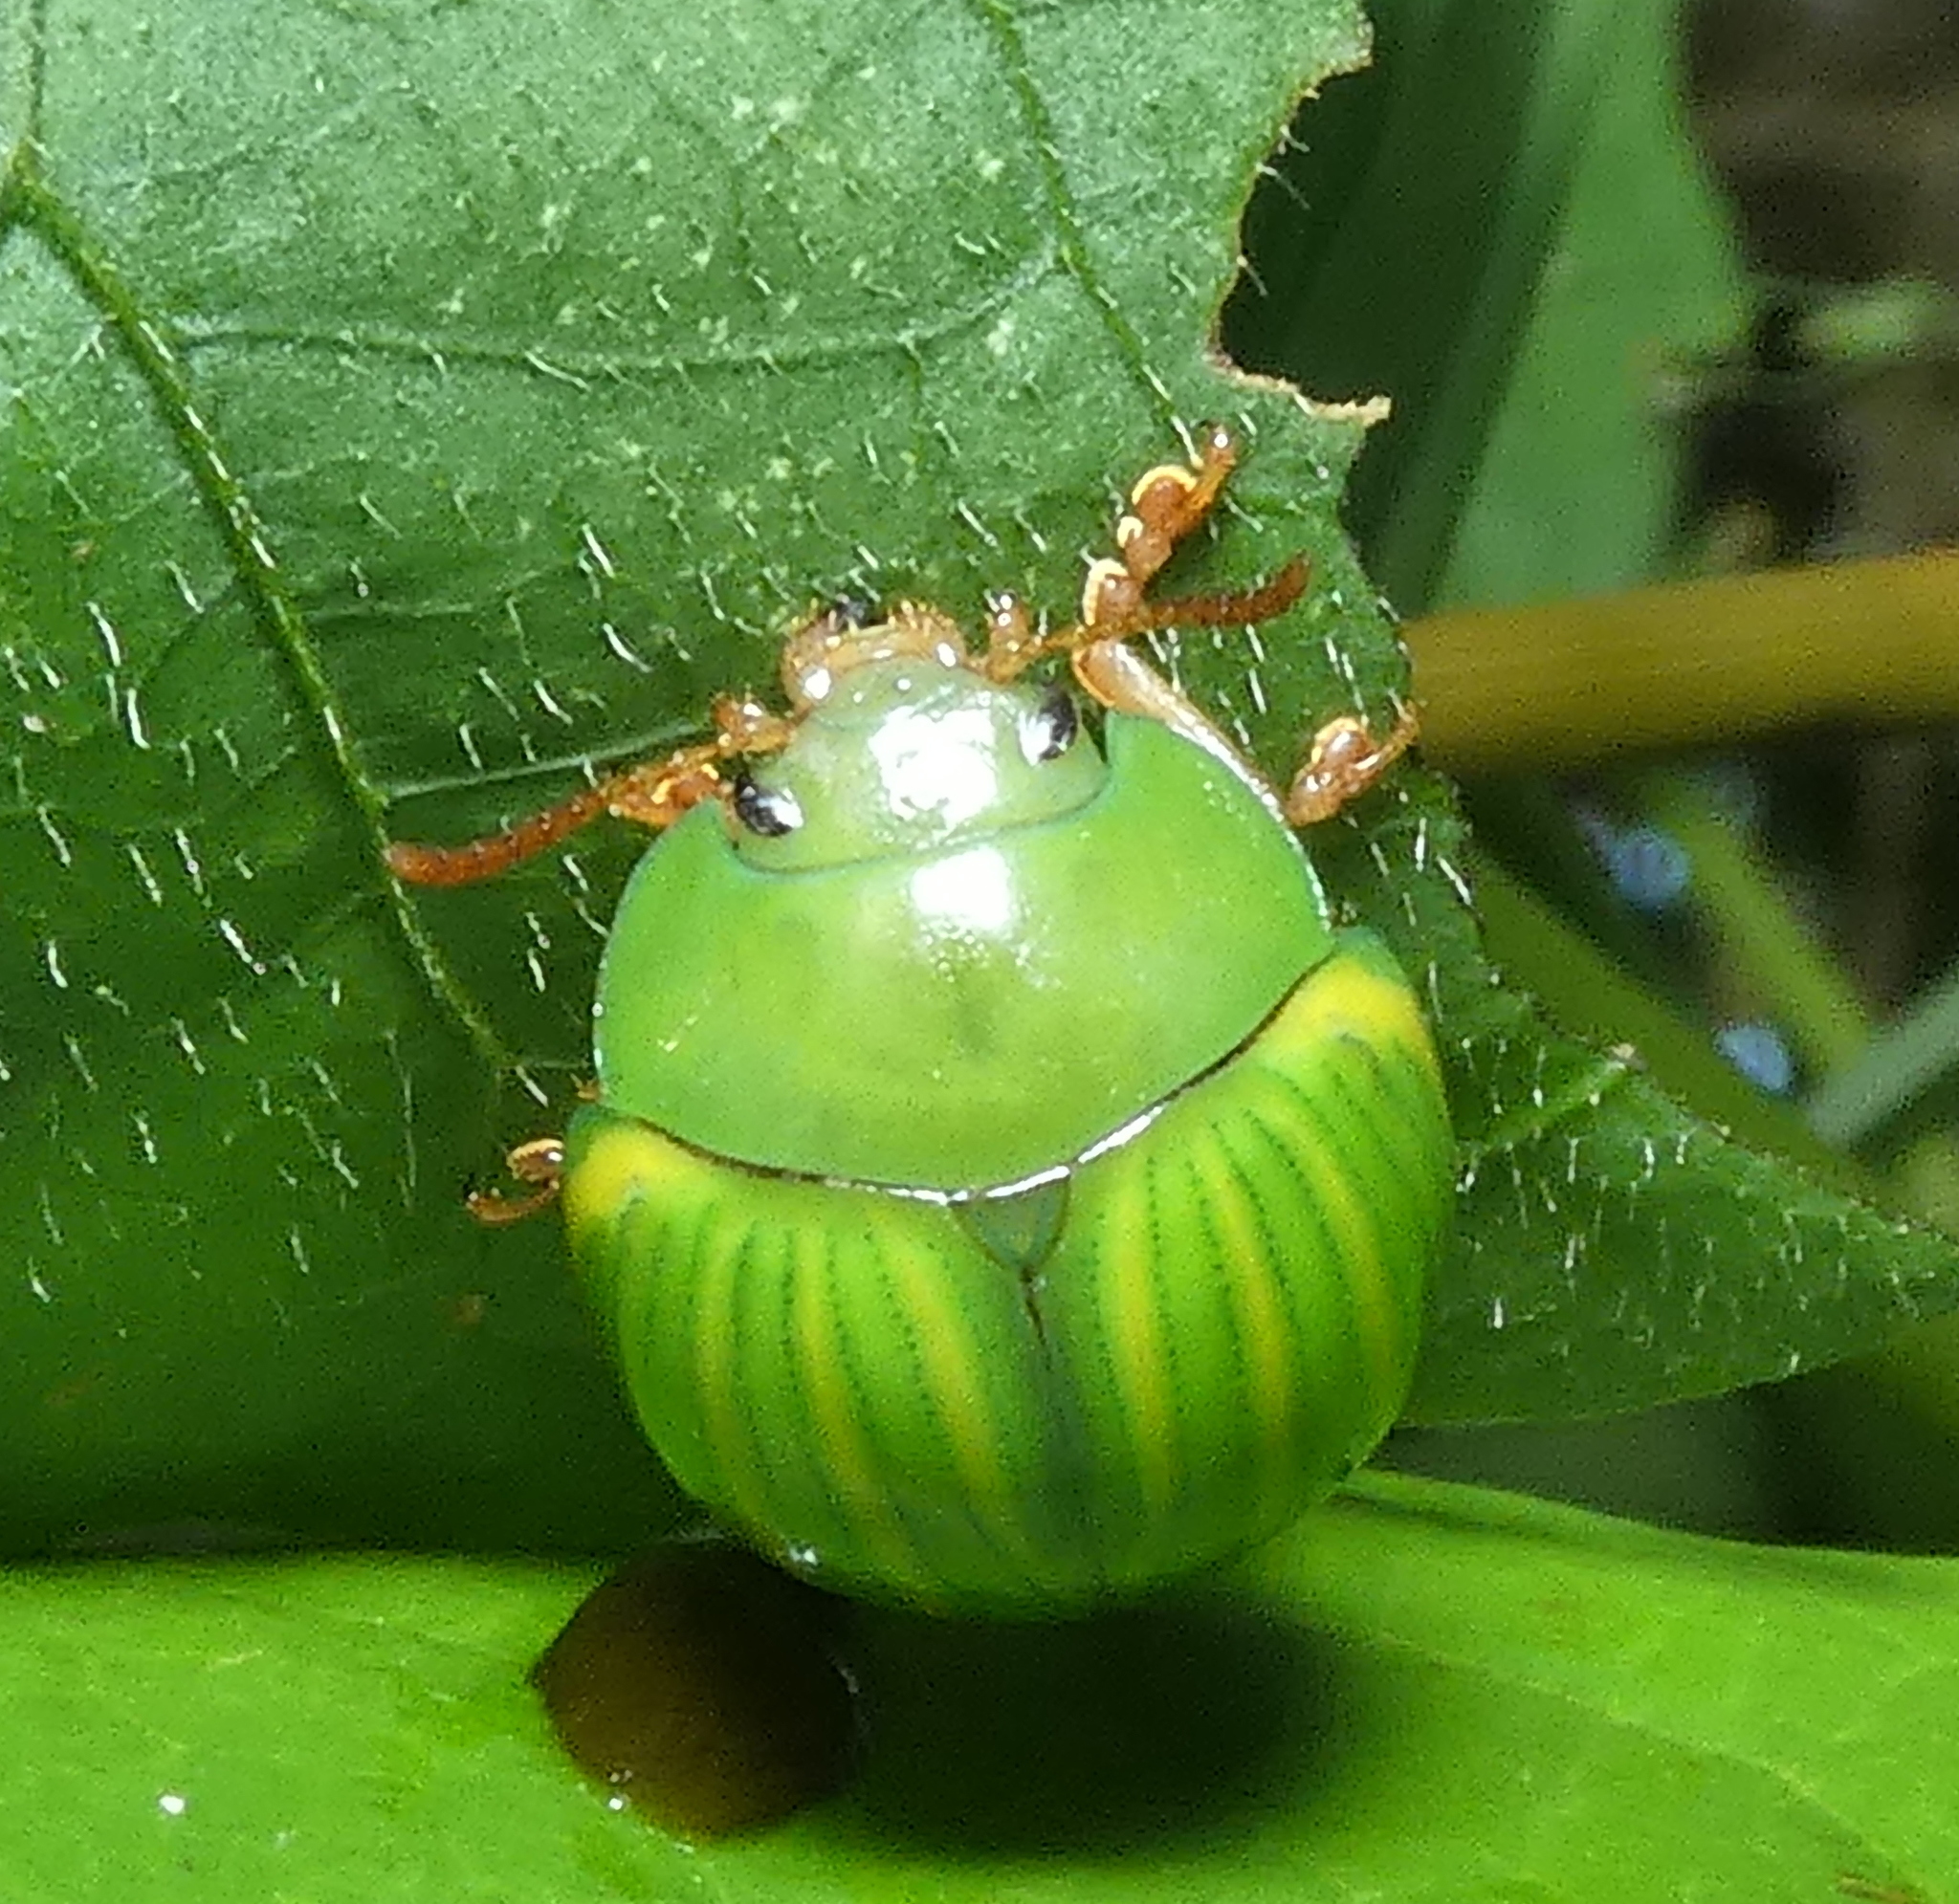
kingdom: Animalia
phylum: Arthropoda
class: Insecta
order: Coleoptera
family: Chrysomelidae
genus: Platyphora
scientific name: Platyphora
